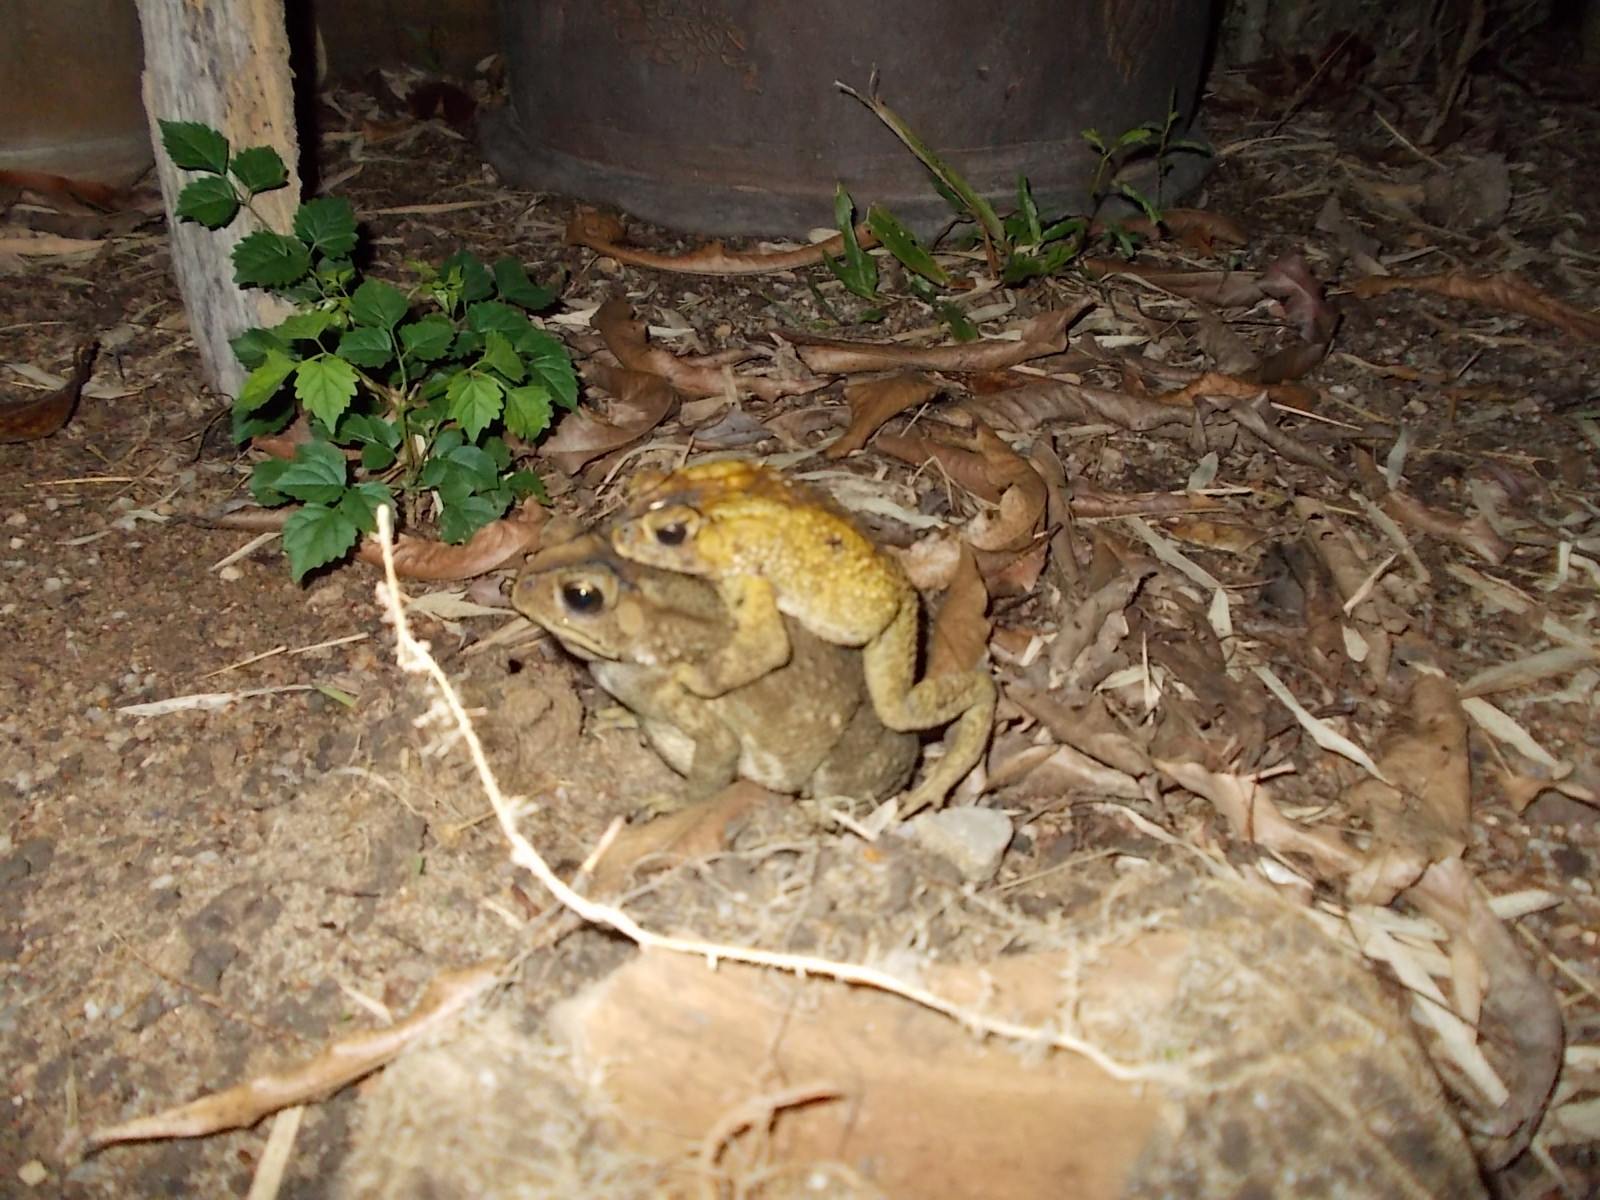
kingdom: Animalia
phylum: Chordata
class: Amphibia
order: Anura
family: Bufonidae
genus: Duttaphrynus
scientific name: Duttaphrynus melanostictus
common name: Common sunda toad
